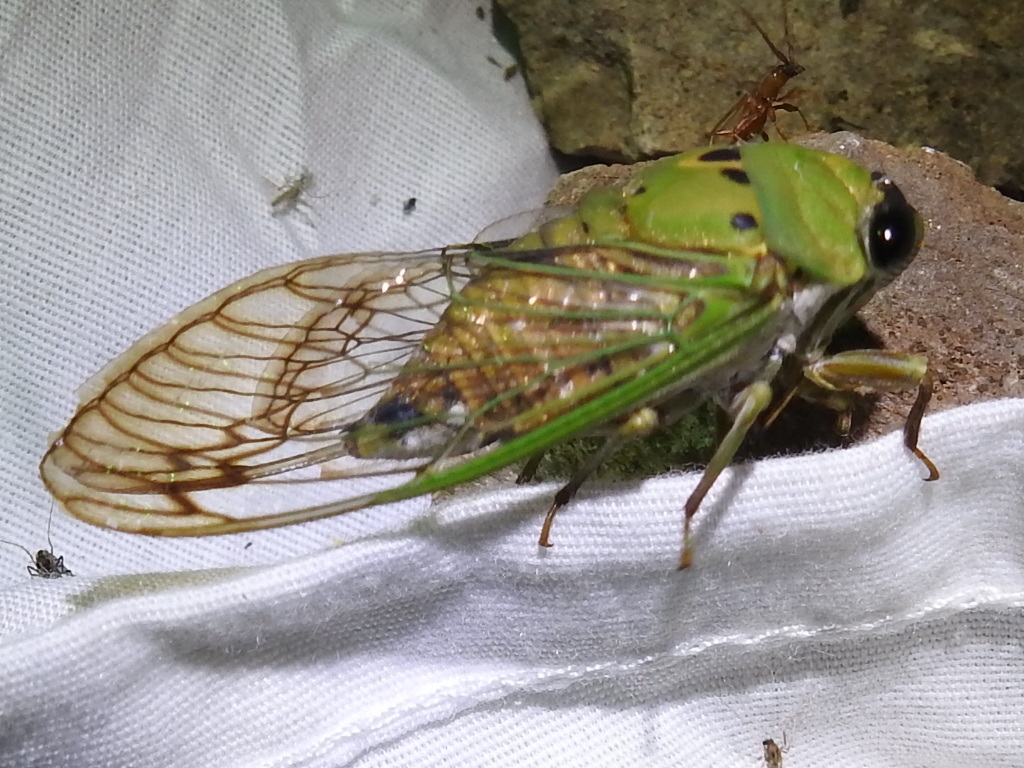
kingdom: Animalia
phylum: Arthropoda
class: Insecta
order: Hemiptera
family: Cicadidae
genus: Neotibicen
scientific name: Neotibicen superbus
